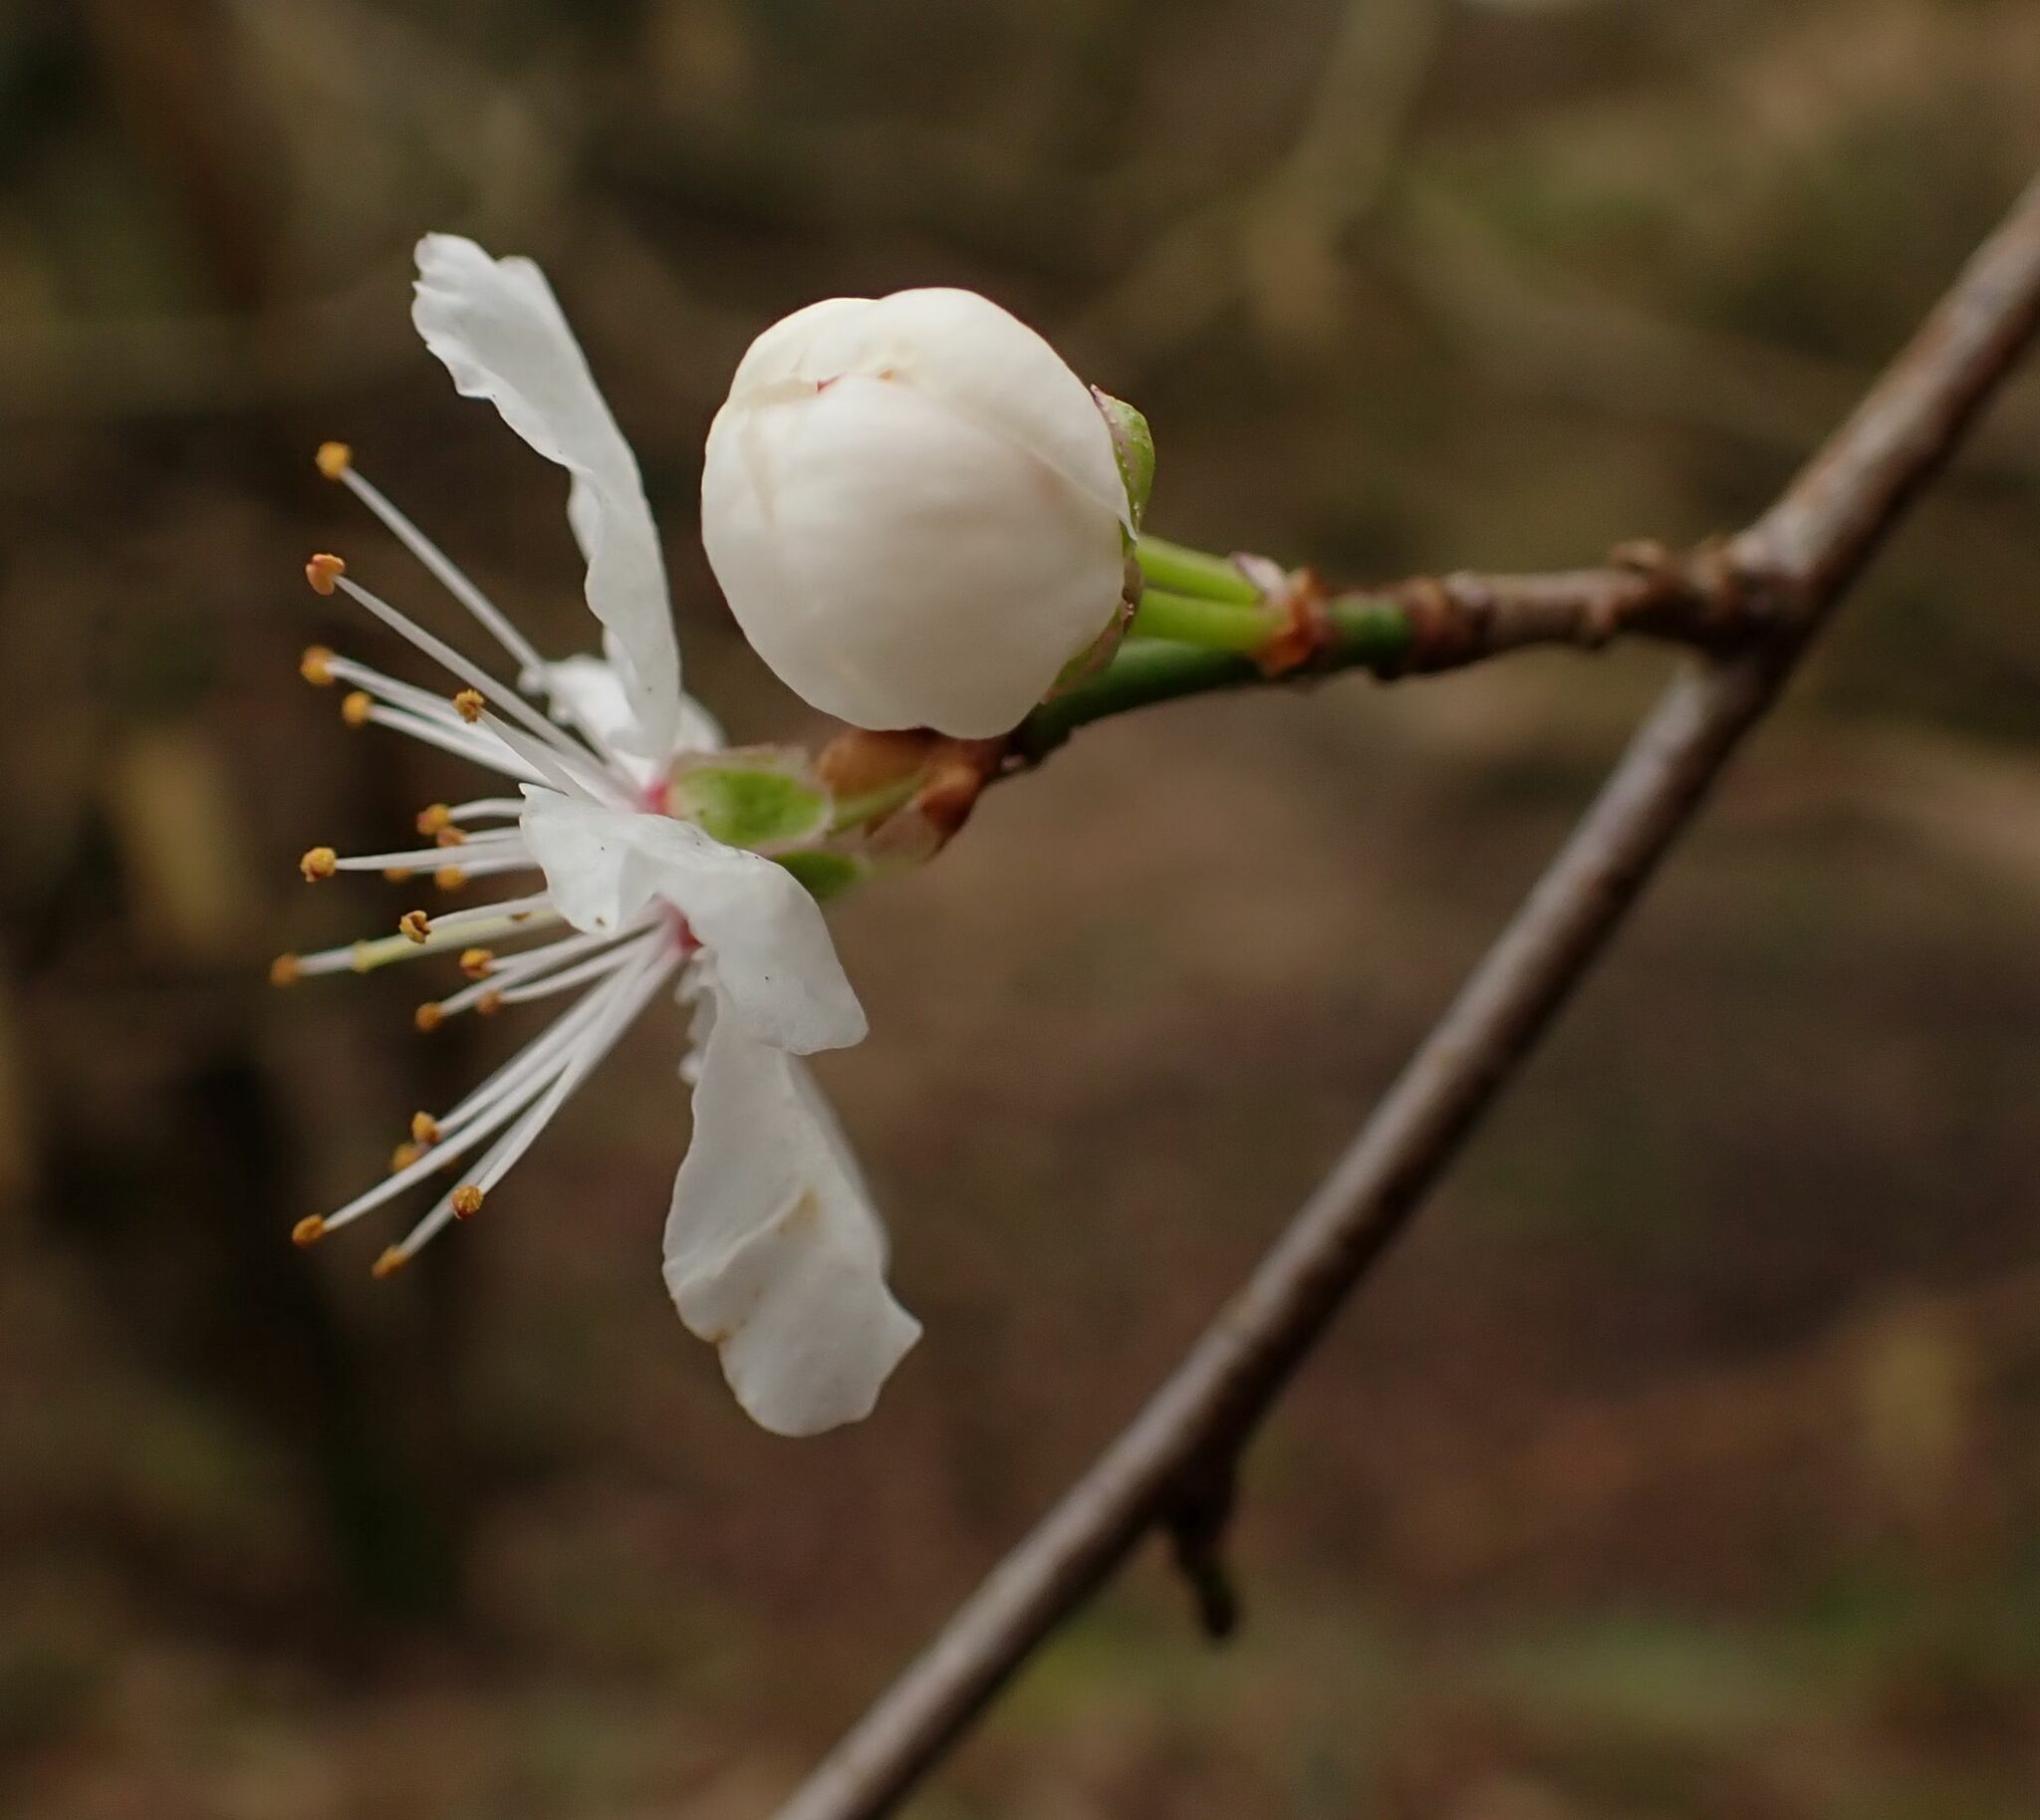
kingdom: Plantae
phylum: Tracheophyta
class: Magnoliopsida
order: Rosales
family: Rosaceae
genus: Prunus
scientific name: Prunus cerasifera
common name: Cherry plum
